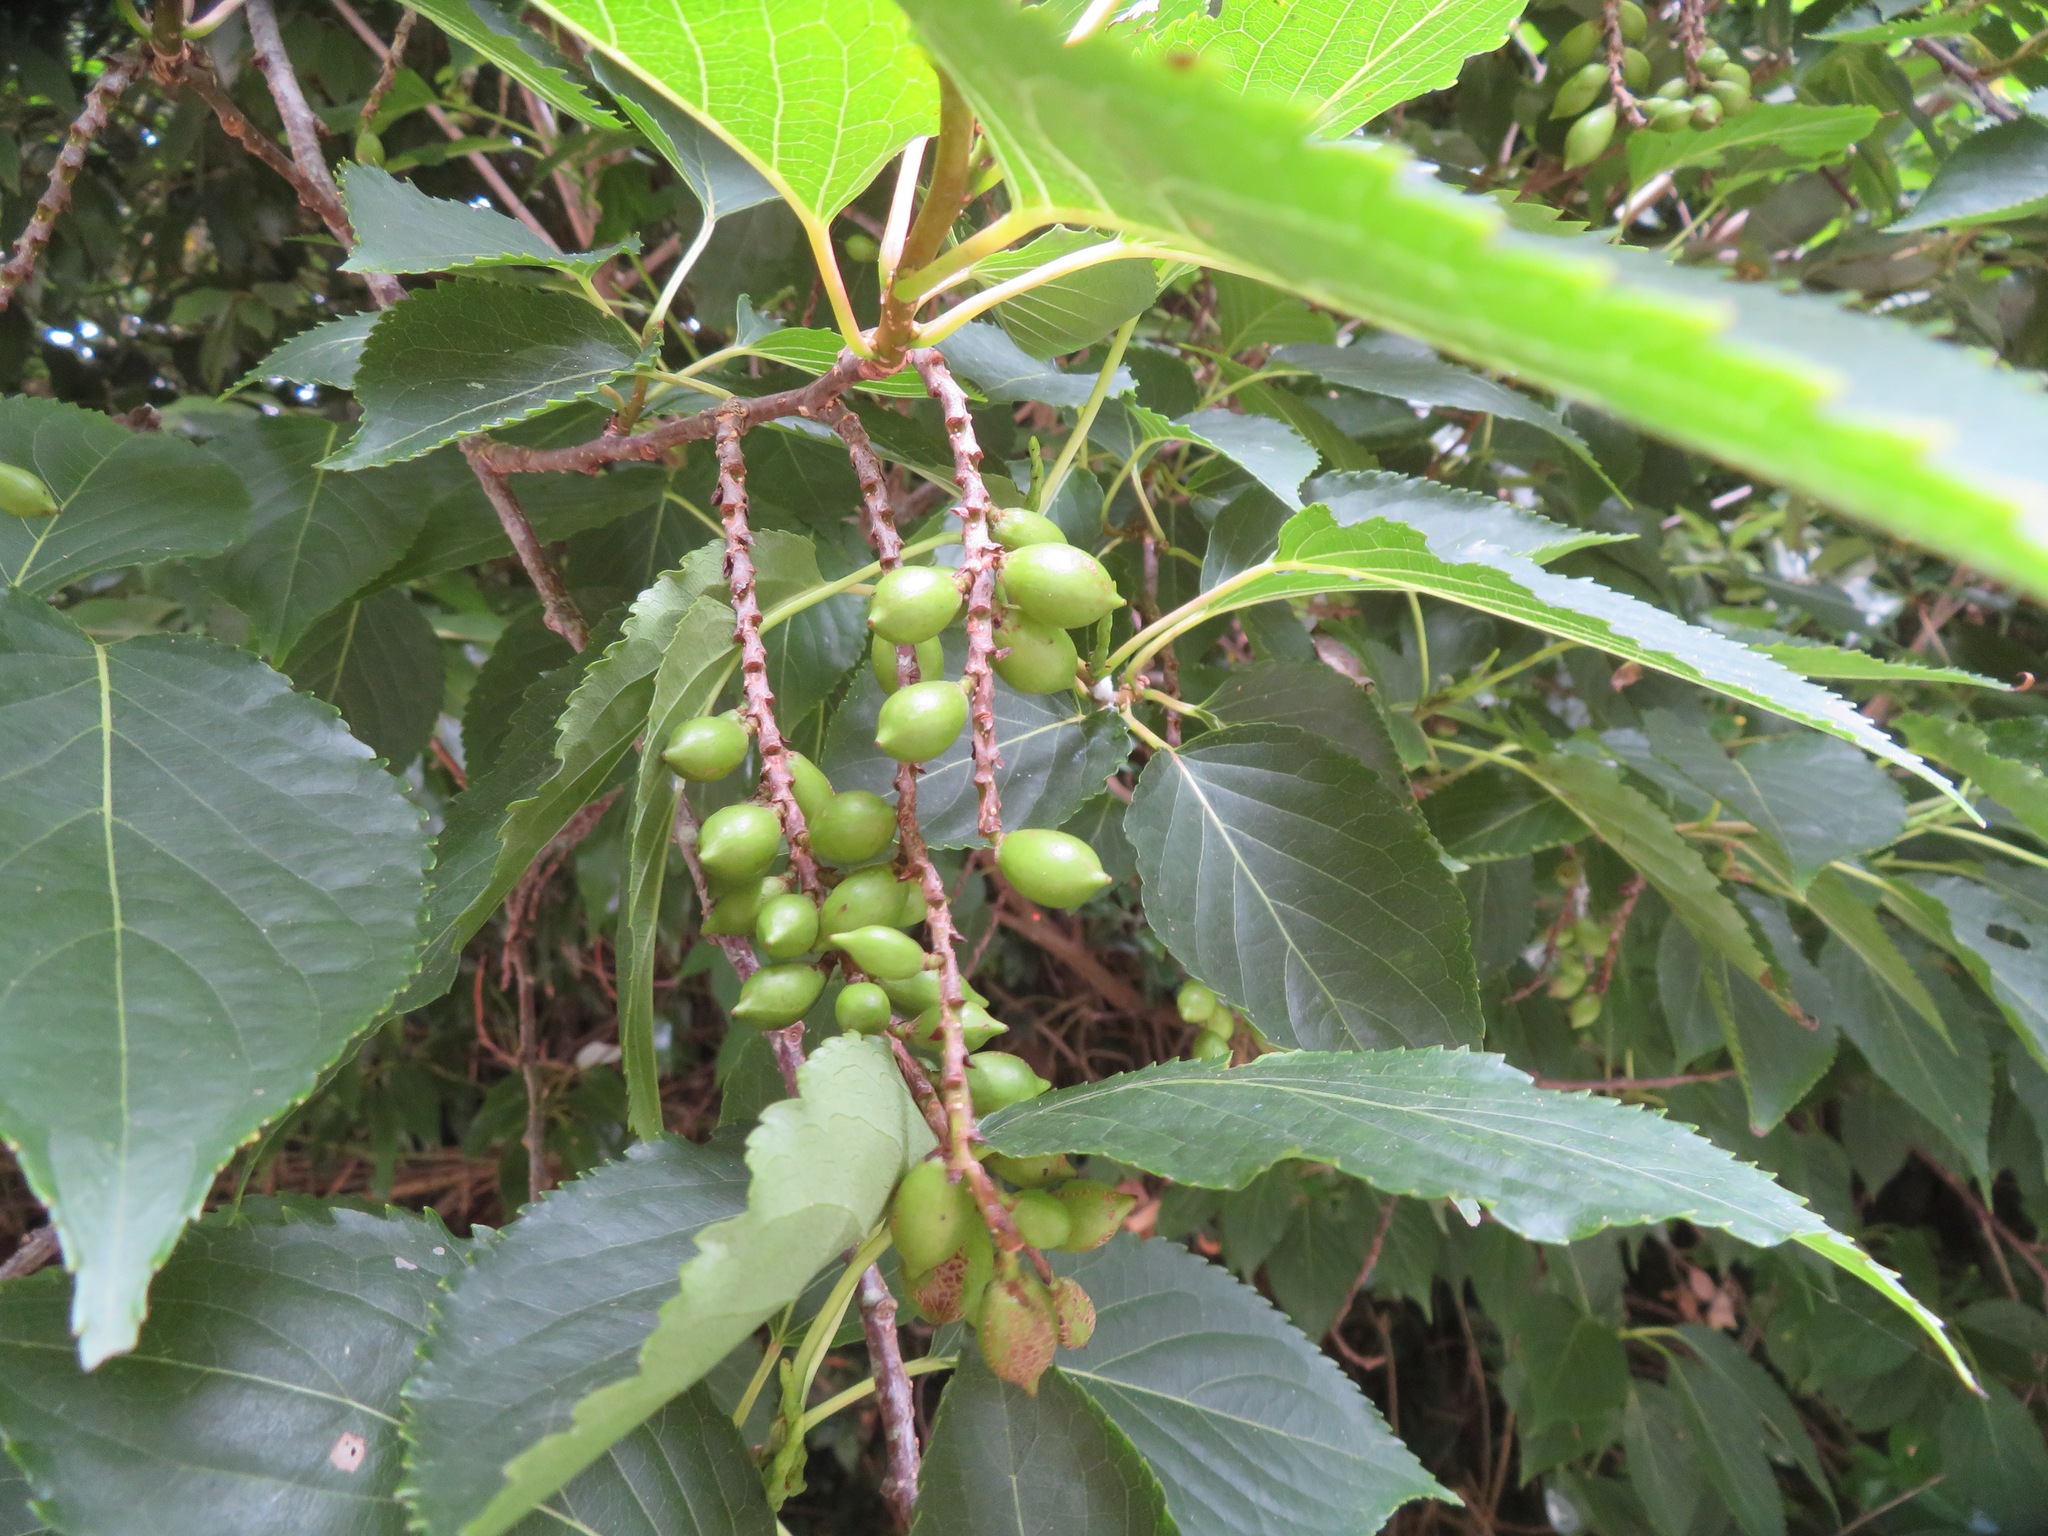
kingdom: Plantae
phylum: Tracheophyta
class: Magnoliopsida
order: Crossosomatales
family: Stachyuraceae
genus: Stachyurus
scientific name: Stachyurus praecox
